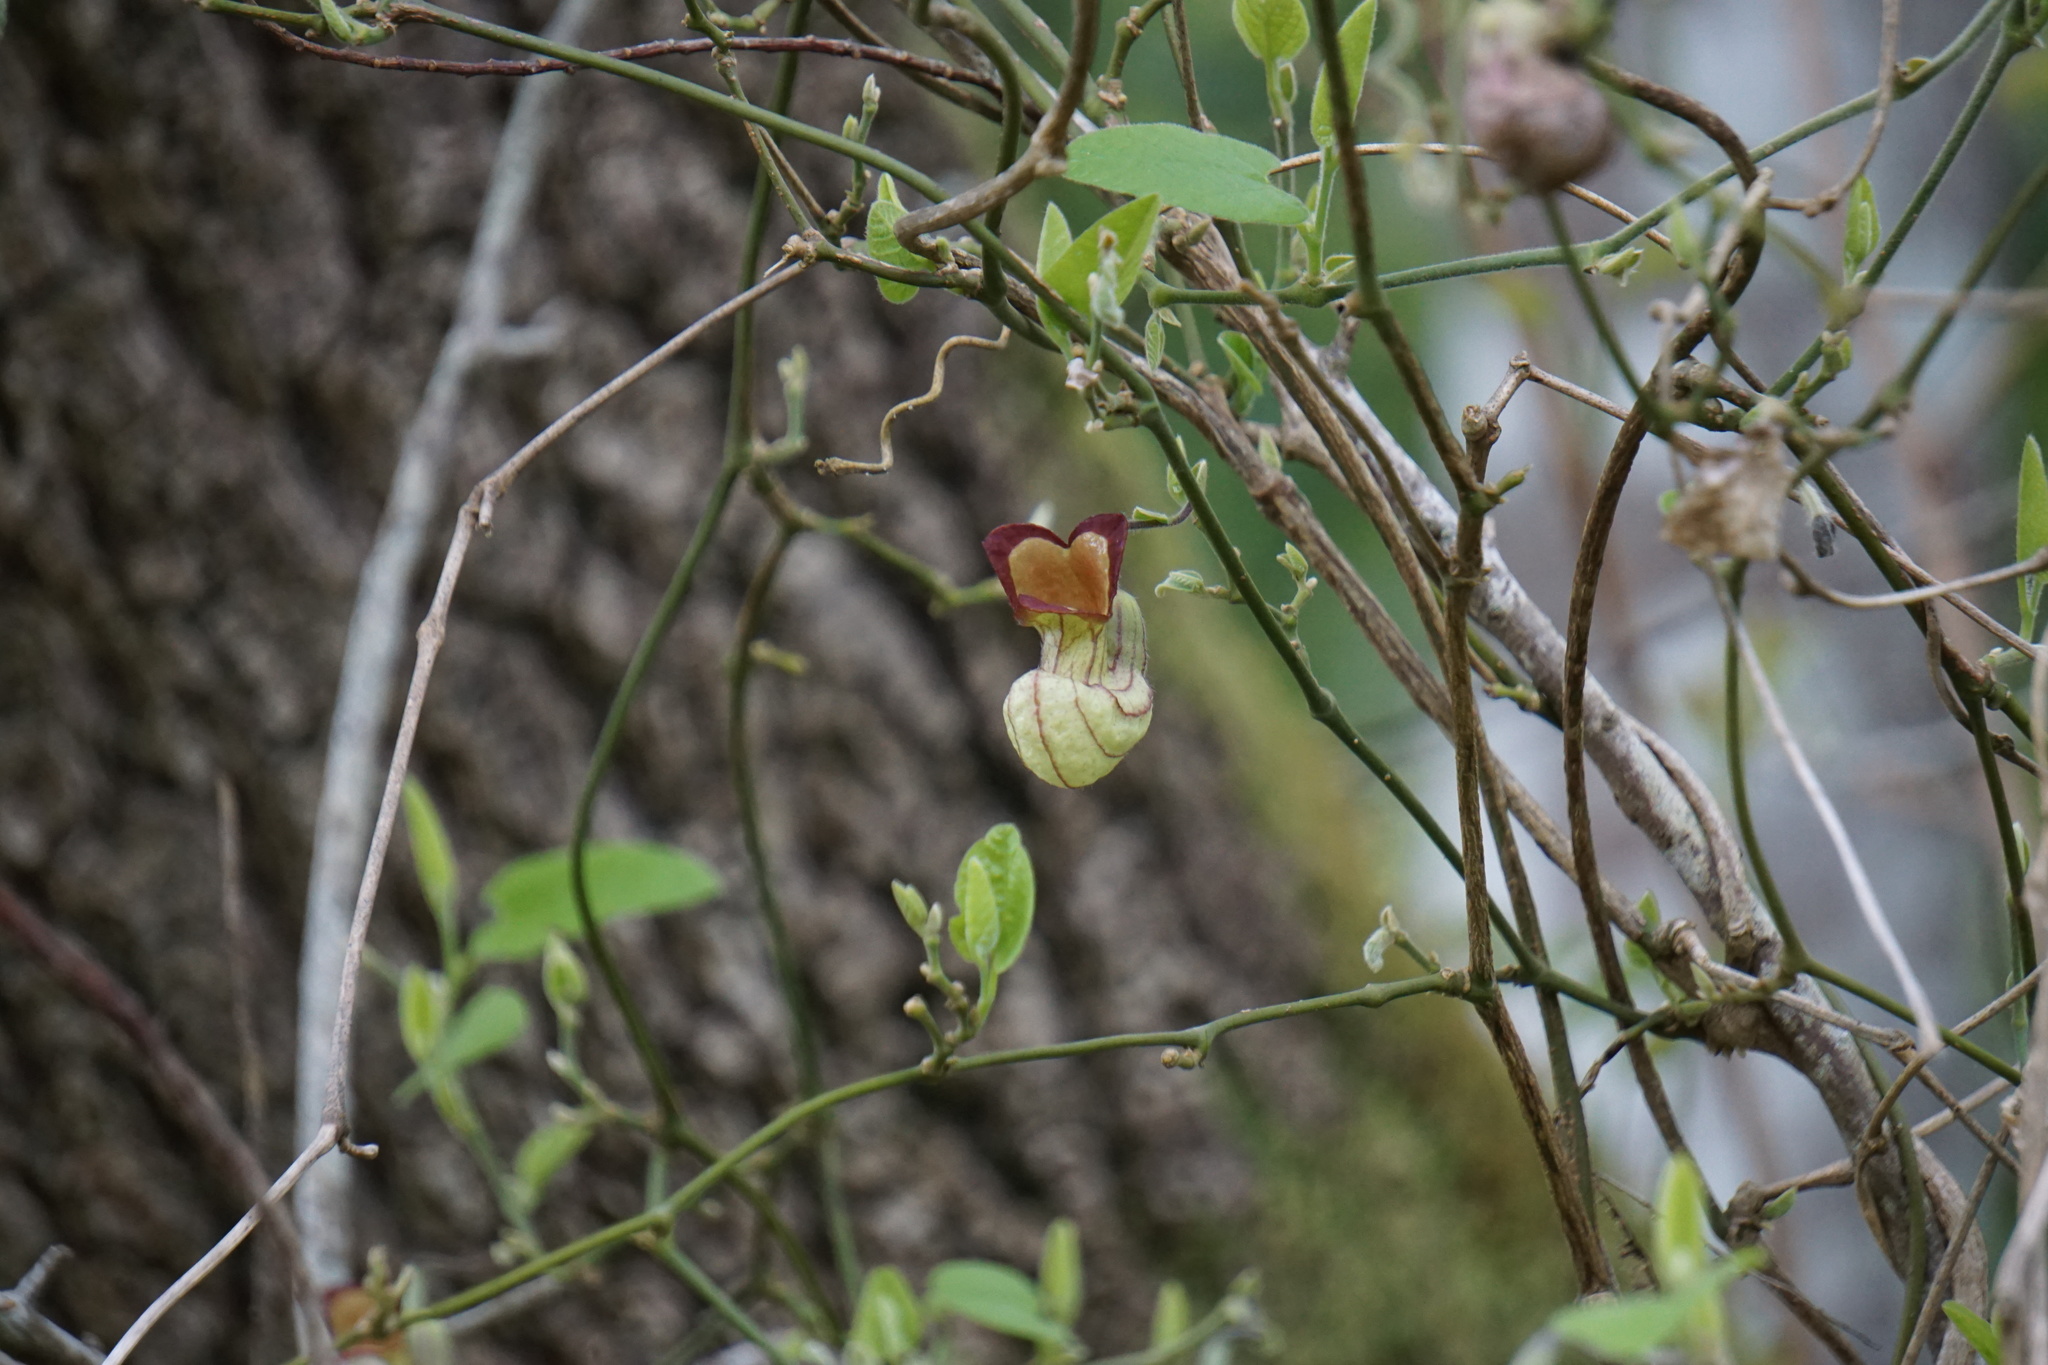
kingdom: Plantae
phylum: Tracheophyta
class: Magnoliopsida
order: Piperales
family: Aristolochiaceae
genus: Isotrema
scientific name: Isotrema californicum
